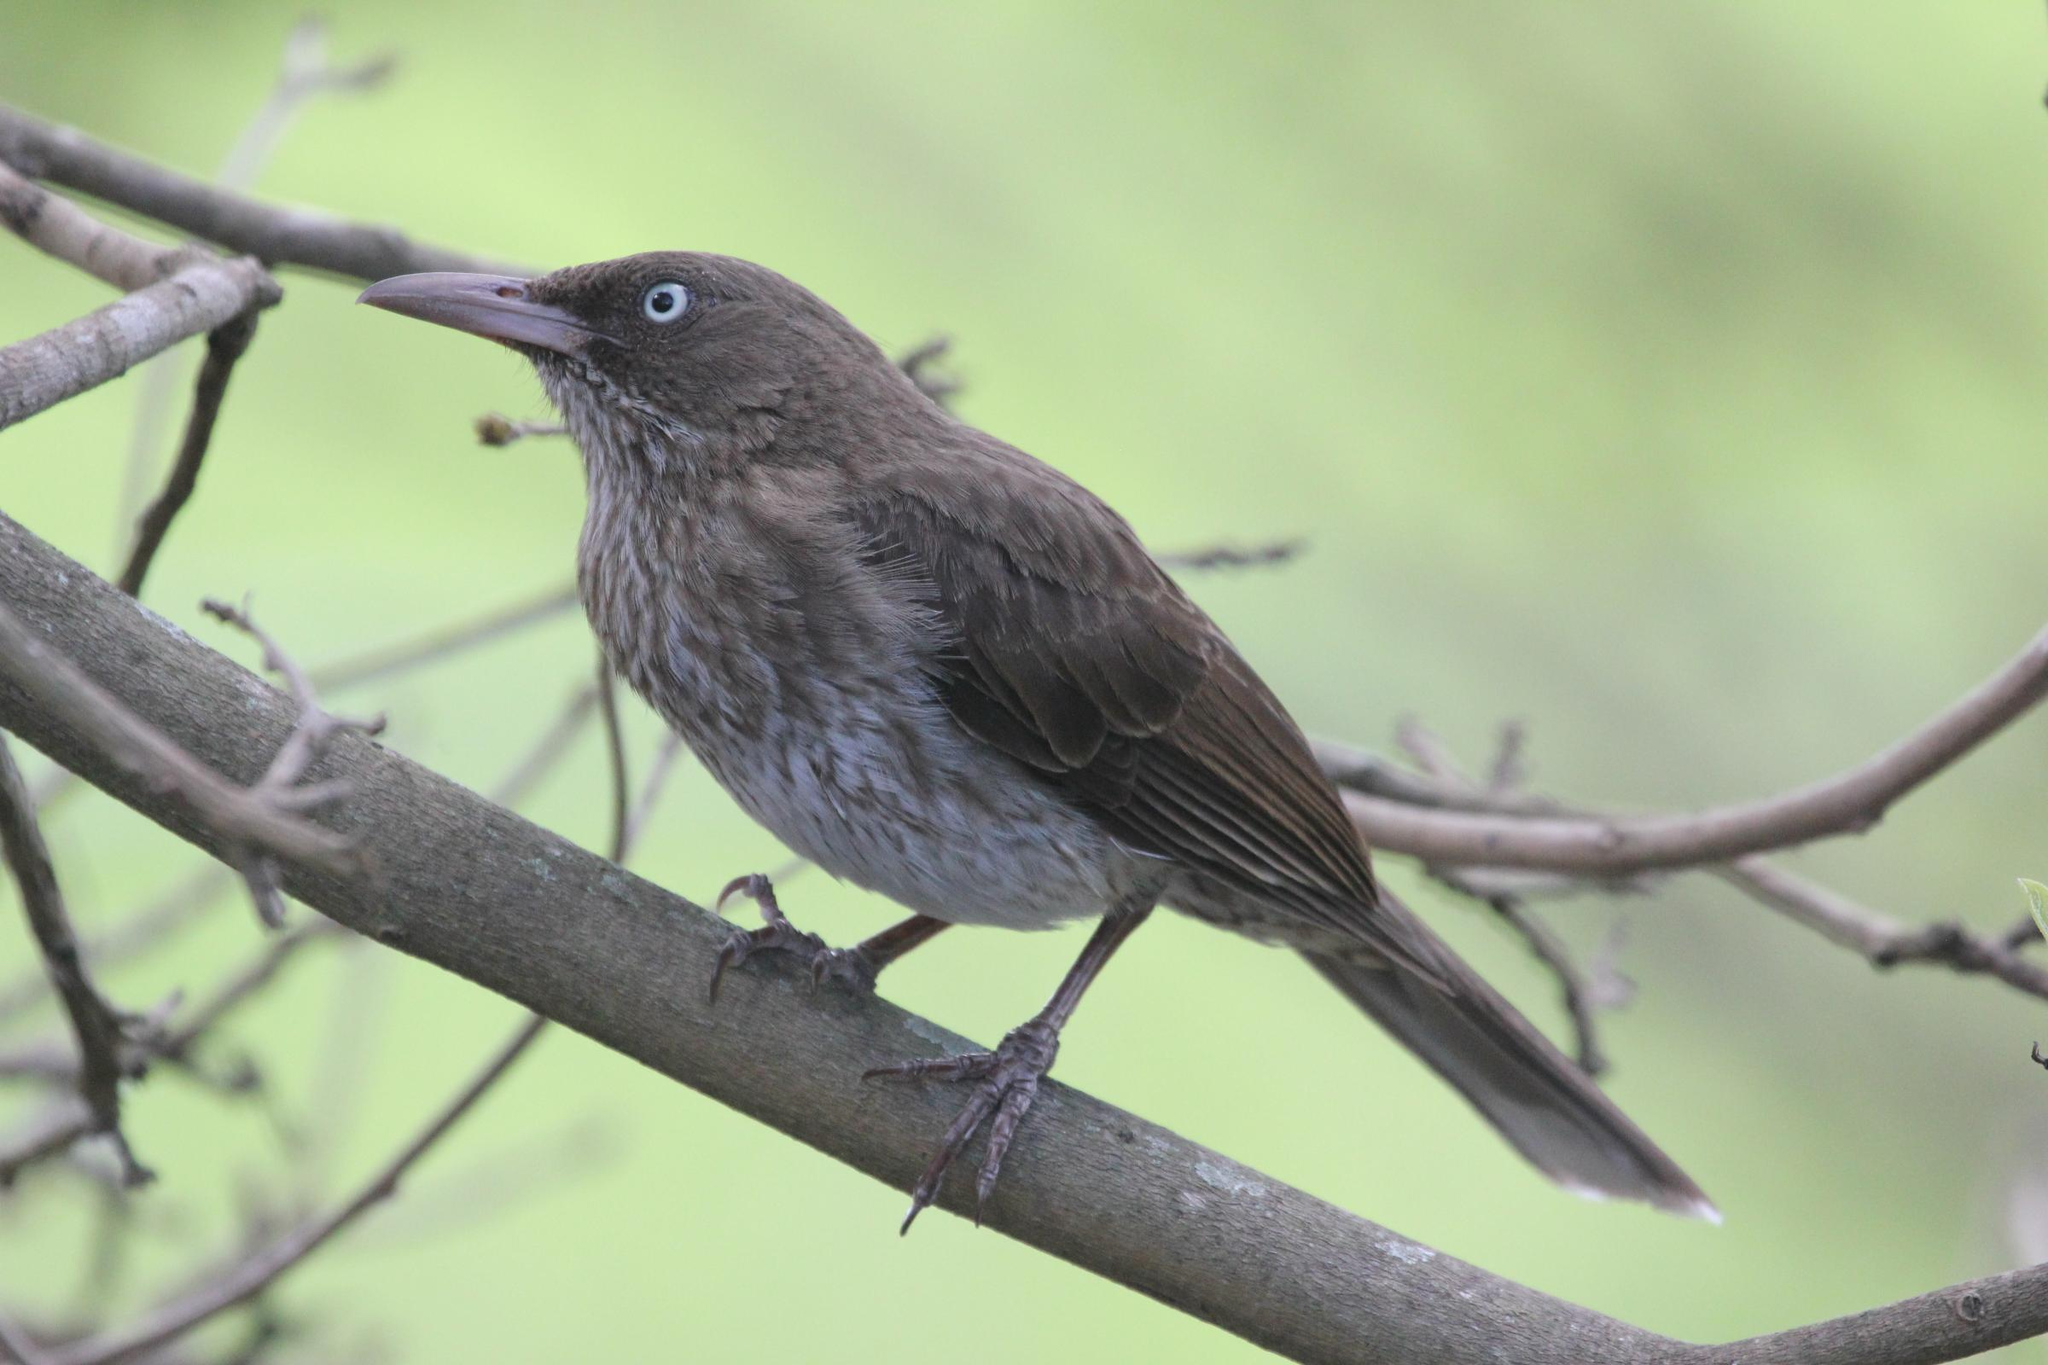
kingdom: Animalia
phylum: Chordata
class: Aves
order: Passeriformes
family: Mimidae
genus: Margarops
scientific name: Margarops fuscatus
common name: Pearly-eyed thrasher
